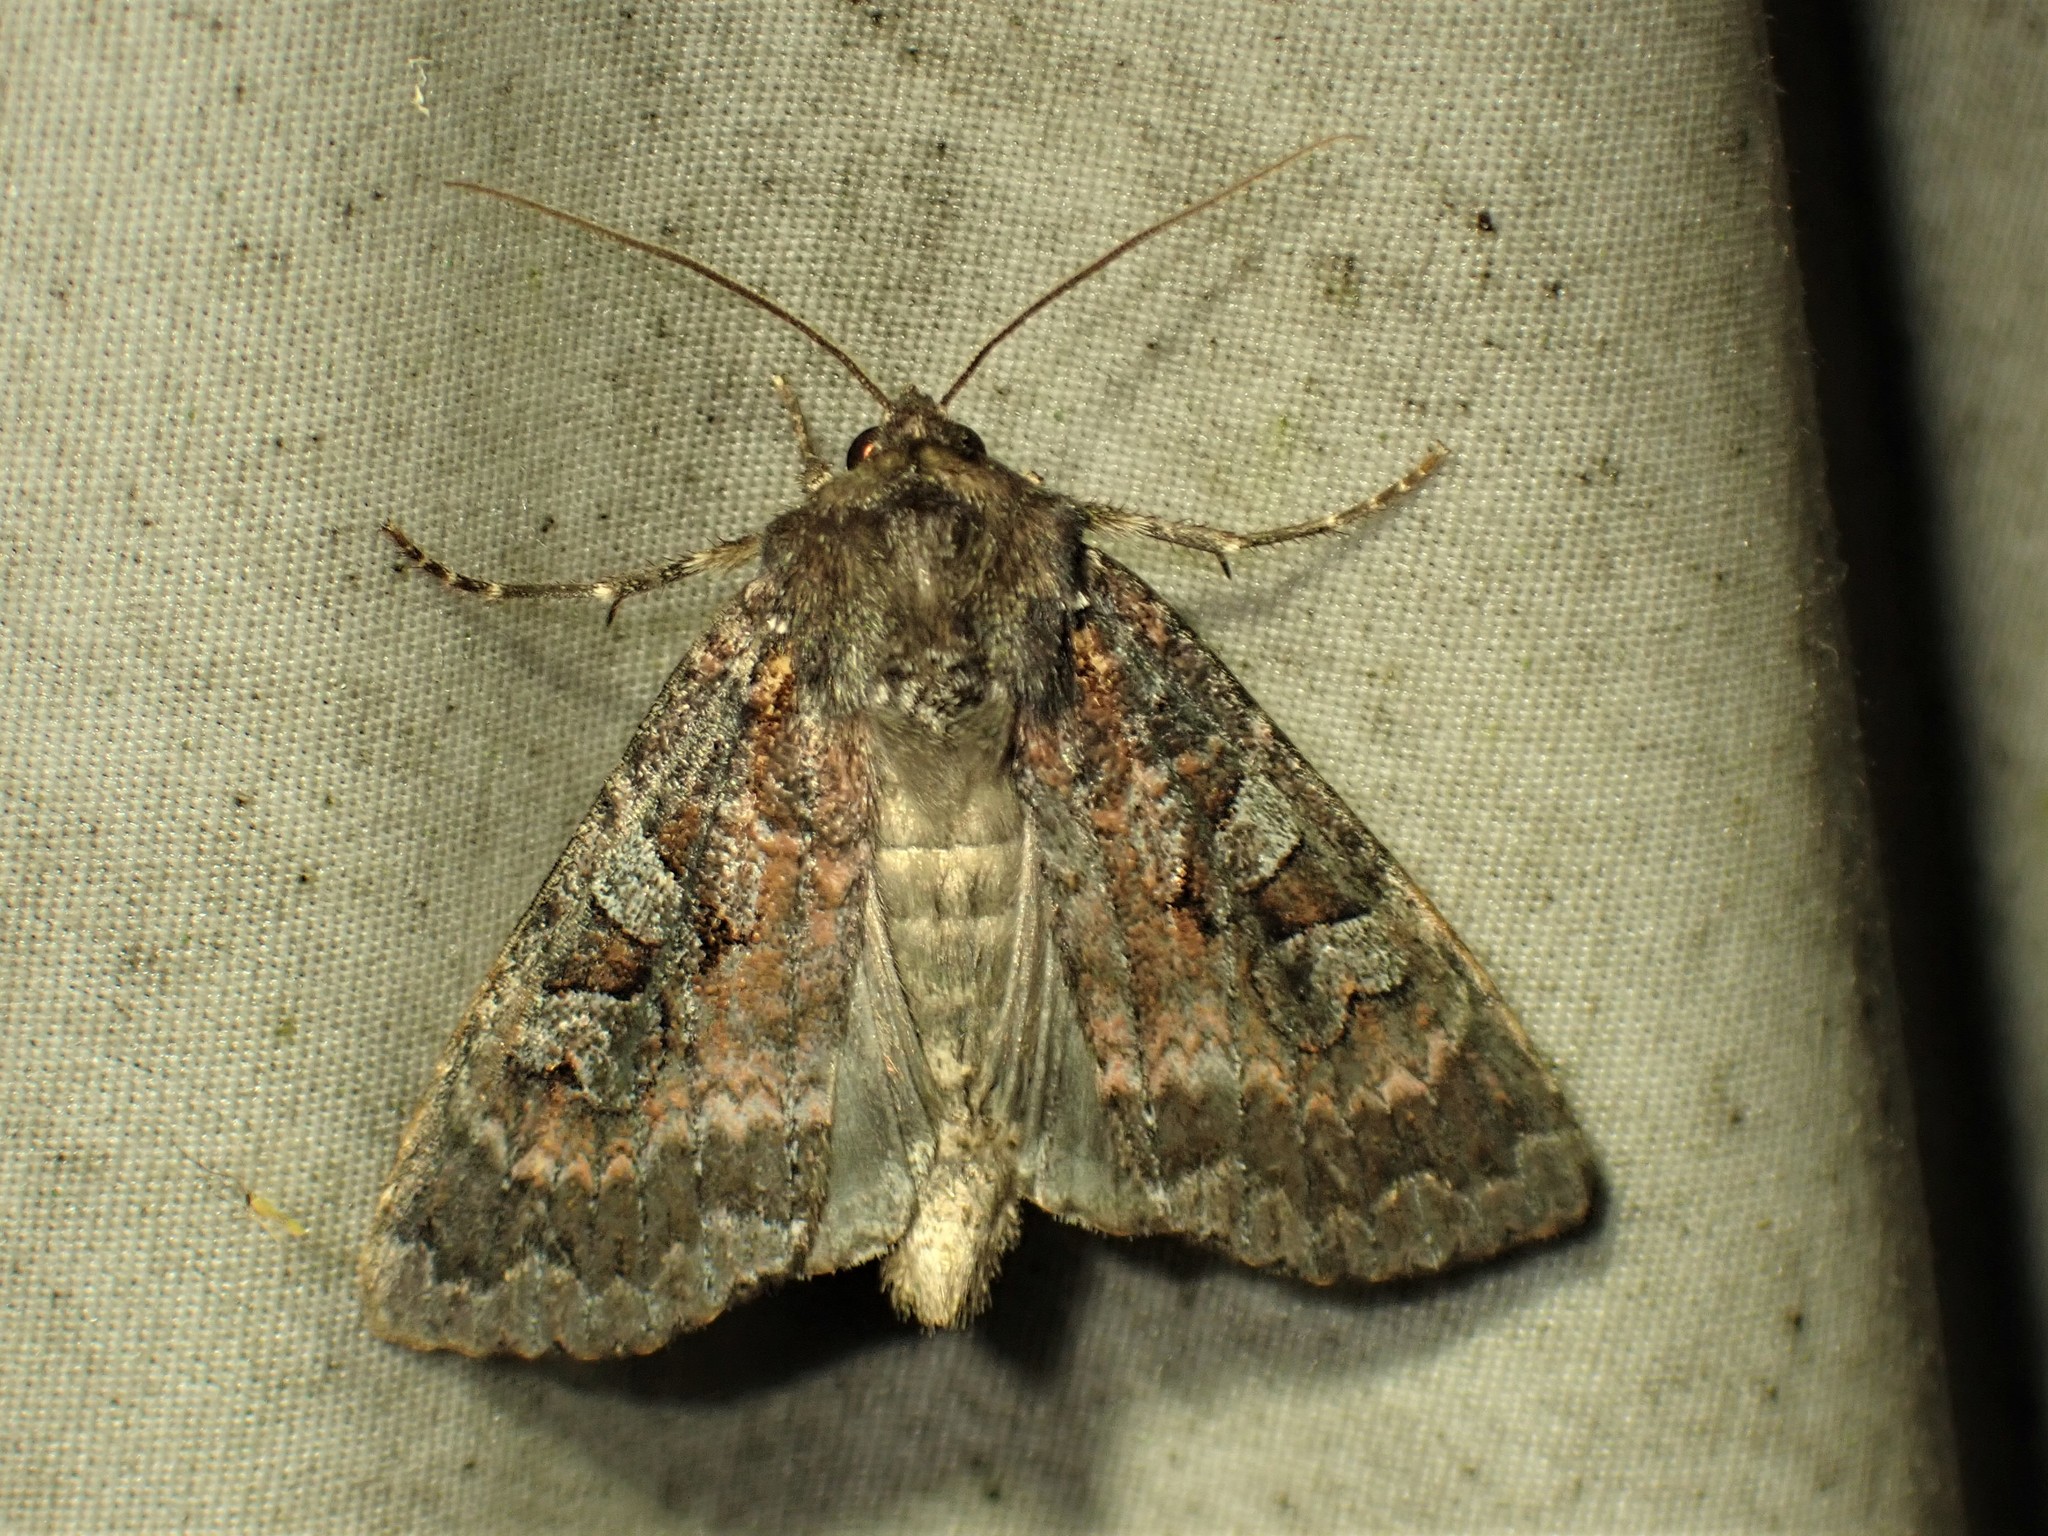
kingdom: Animalia
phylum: Arthropoda
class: Insecta
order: Lepidoptera
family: Noctuidae
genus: Eurois
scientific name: Eurois astricta
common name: Great brown dart
